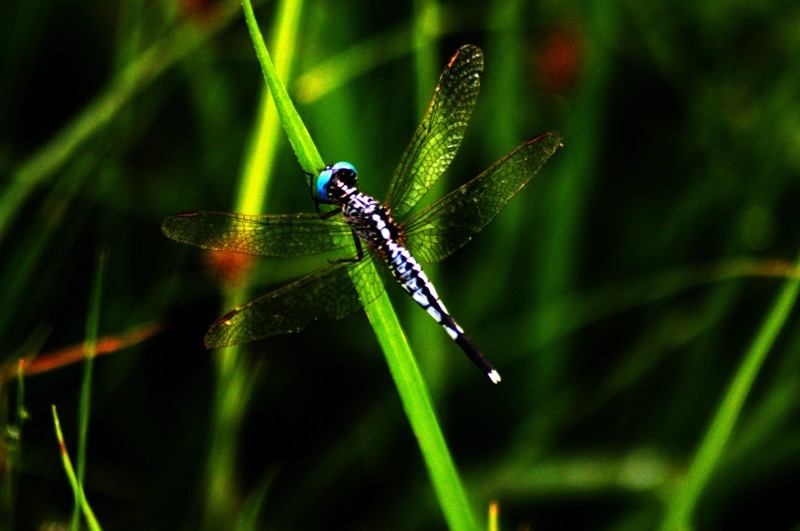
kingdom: Animalia
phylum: Arthropoda
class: Insecta
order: Odonata
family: Libellulidae
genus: Acisoma
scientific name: Acisoma panorpoides
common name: Asian pintail
